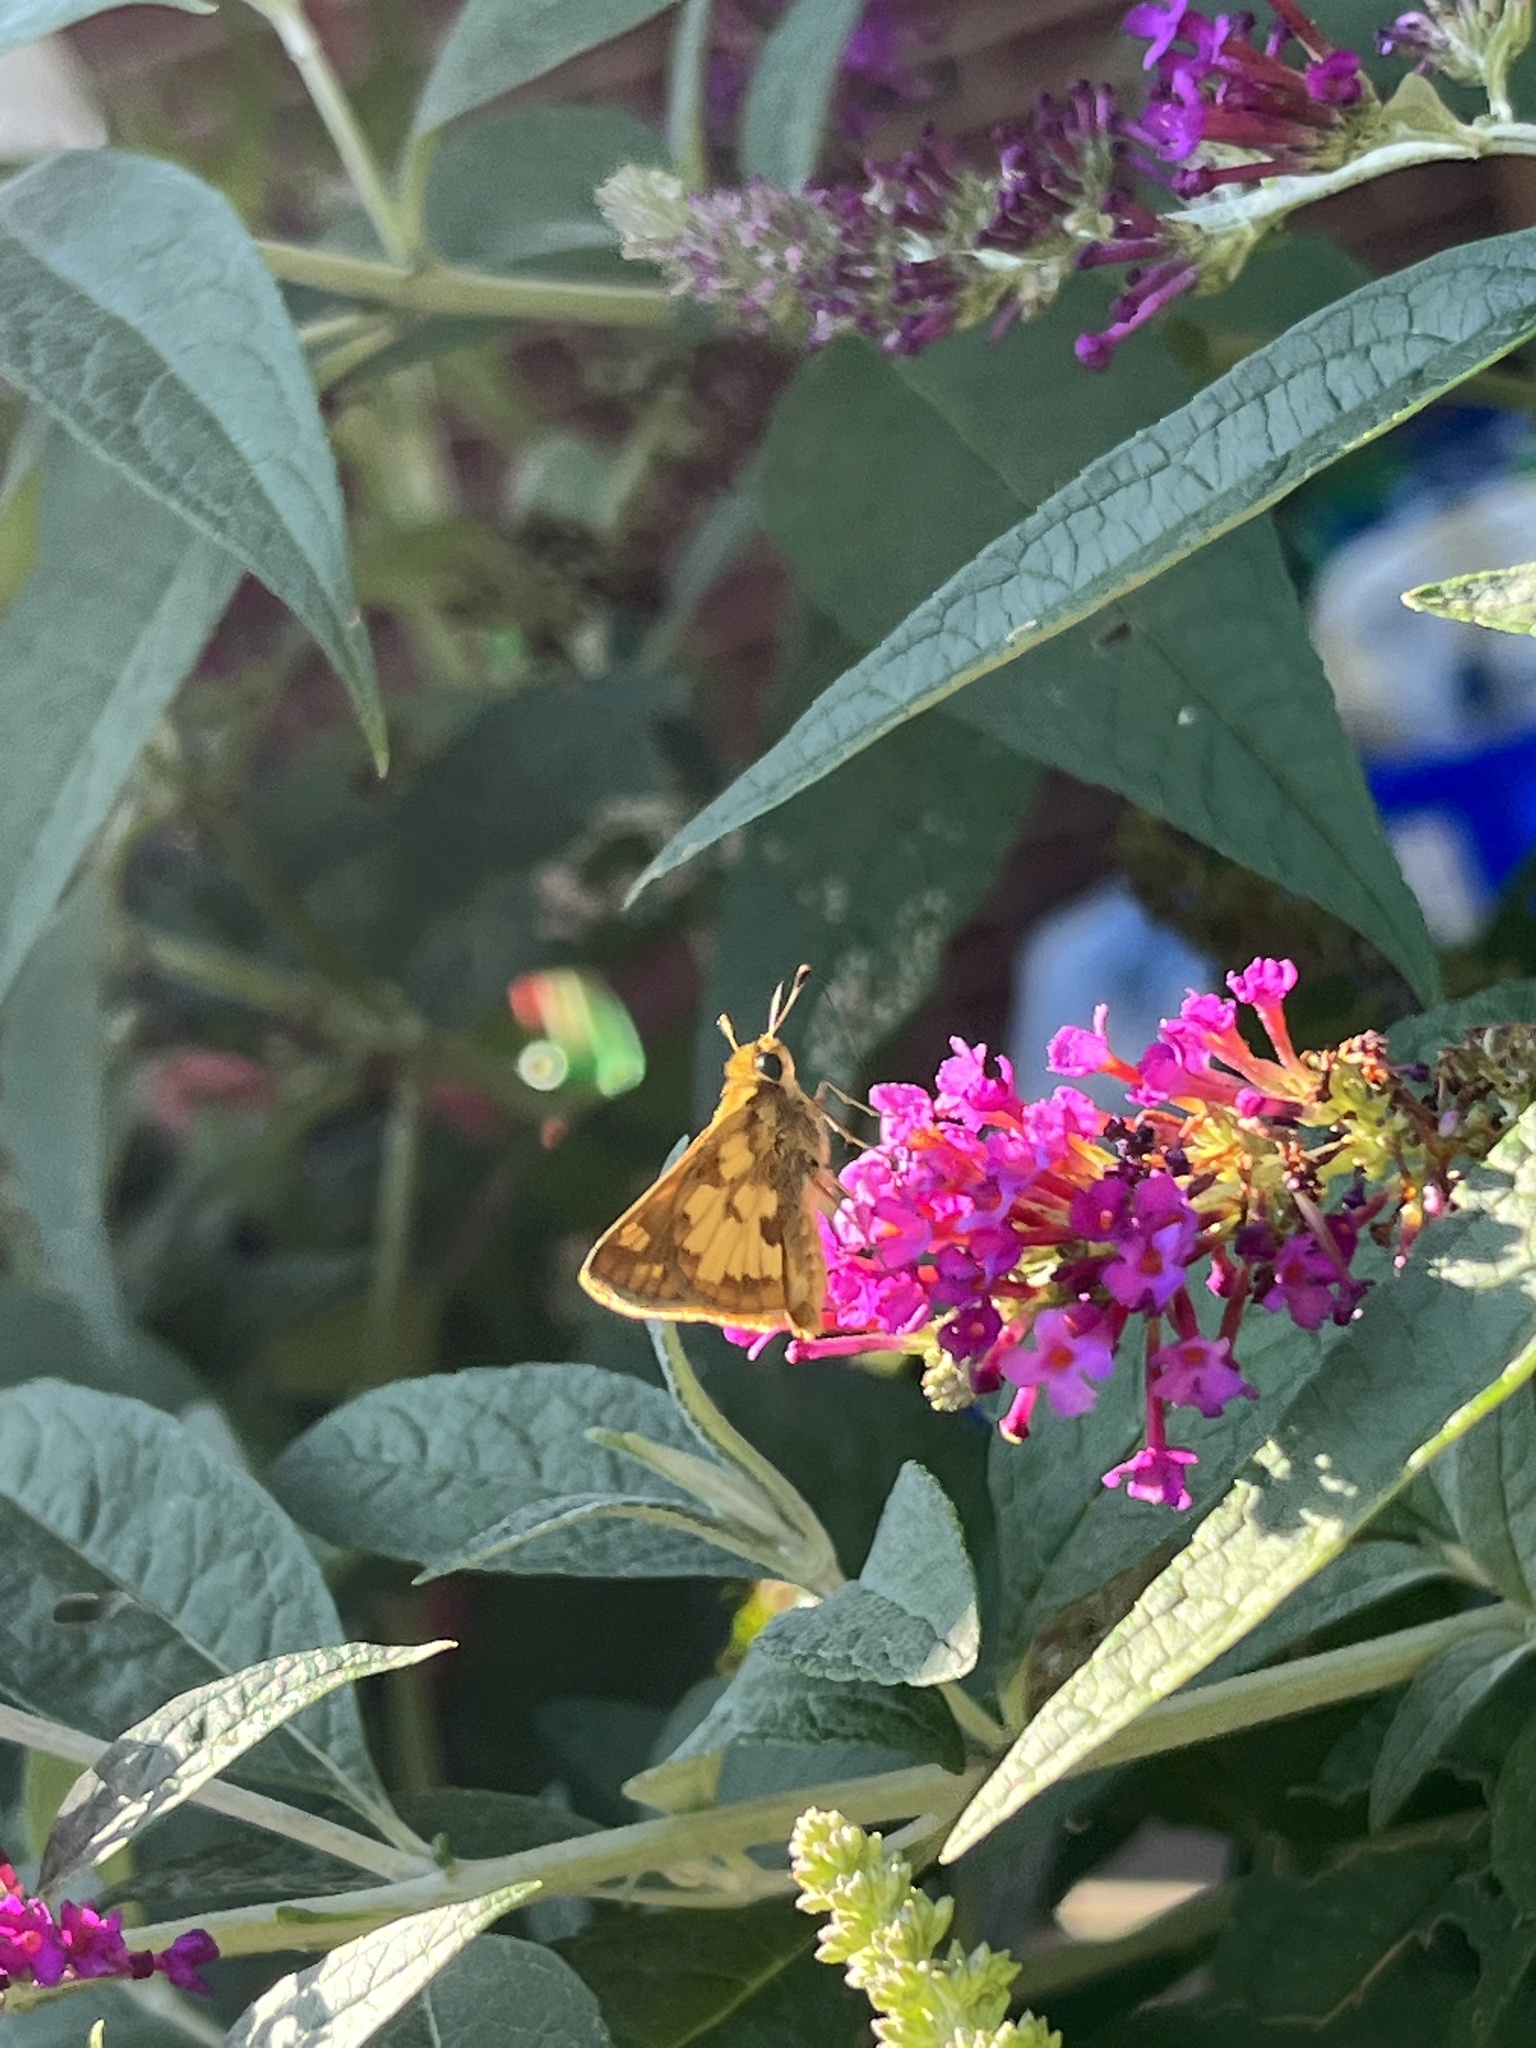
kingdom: Animalia
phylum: Arthropoda
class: Insecta
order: Lepidoptera
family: Hesperiidae
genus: Polites
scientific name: Polites coras
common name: Peck's skipper
